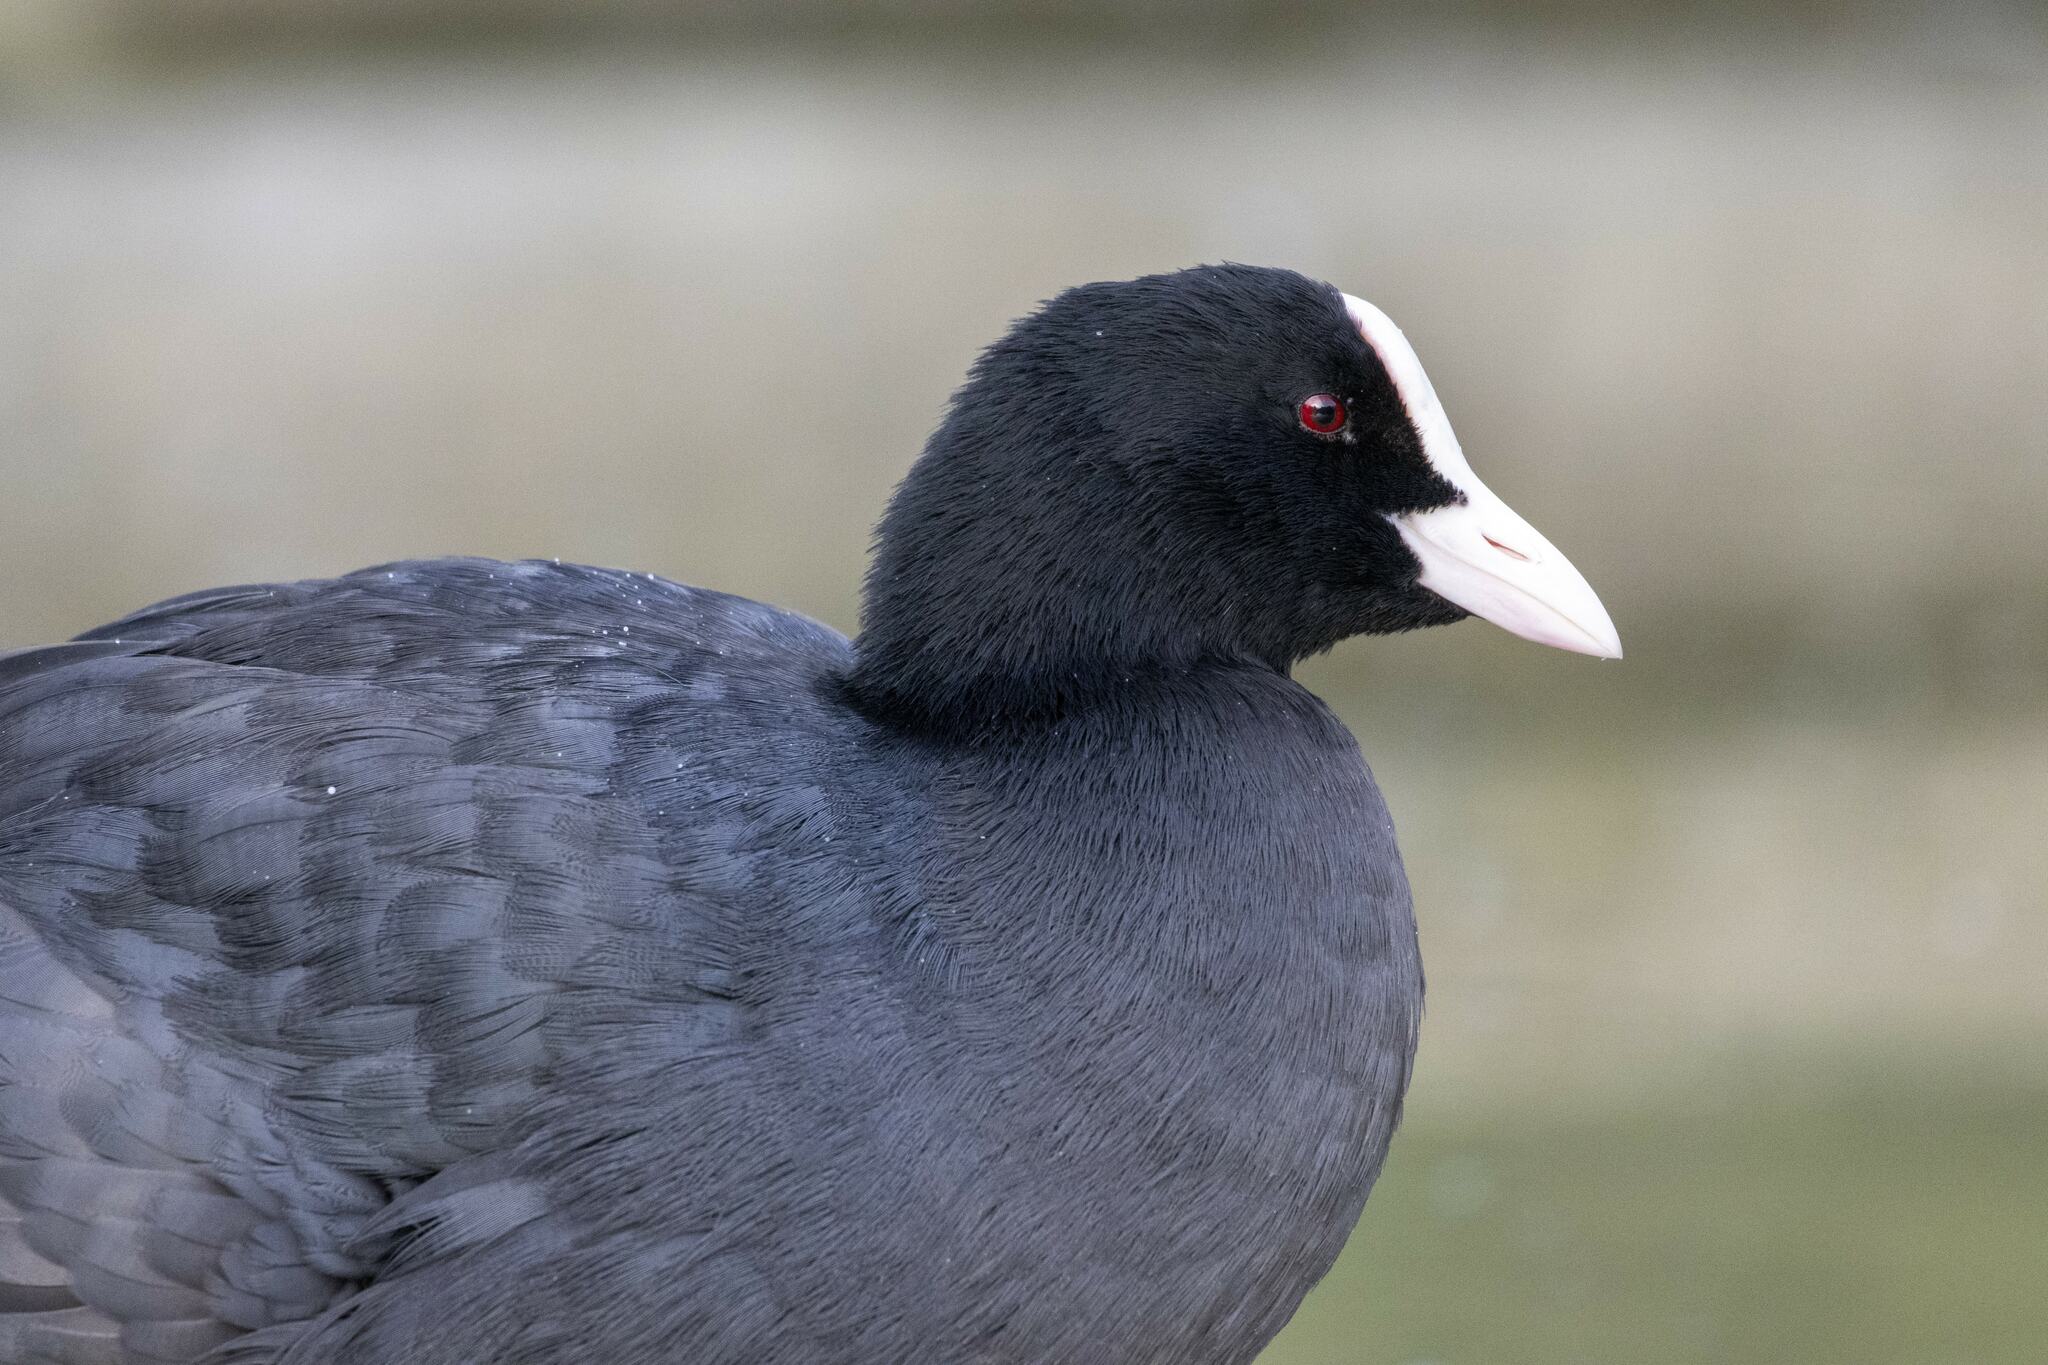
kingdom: Animalia
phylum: Chordata
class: Aves
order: Gruiformes
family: Rallidae
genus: Fulica
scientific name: Fulica atra
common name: Eurasian coot
